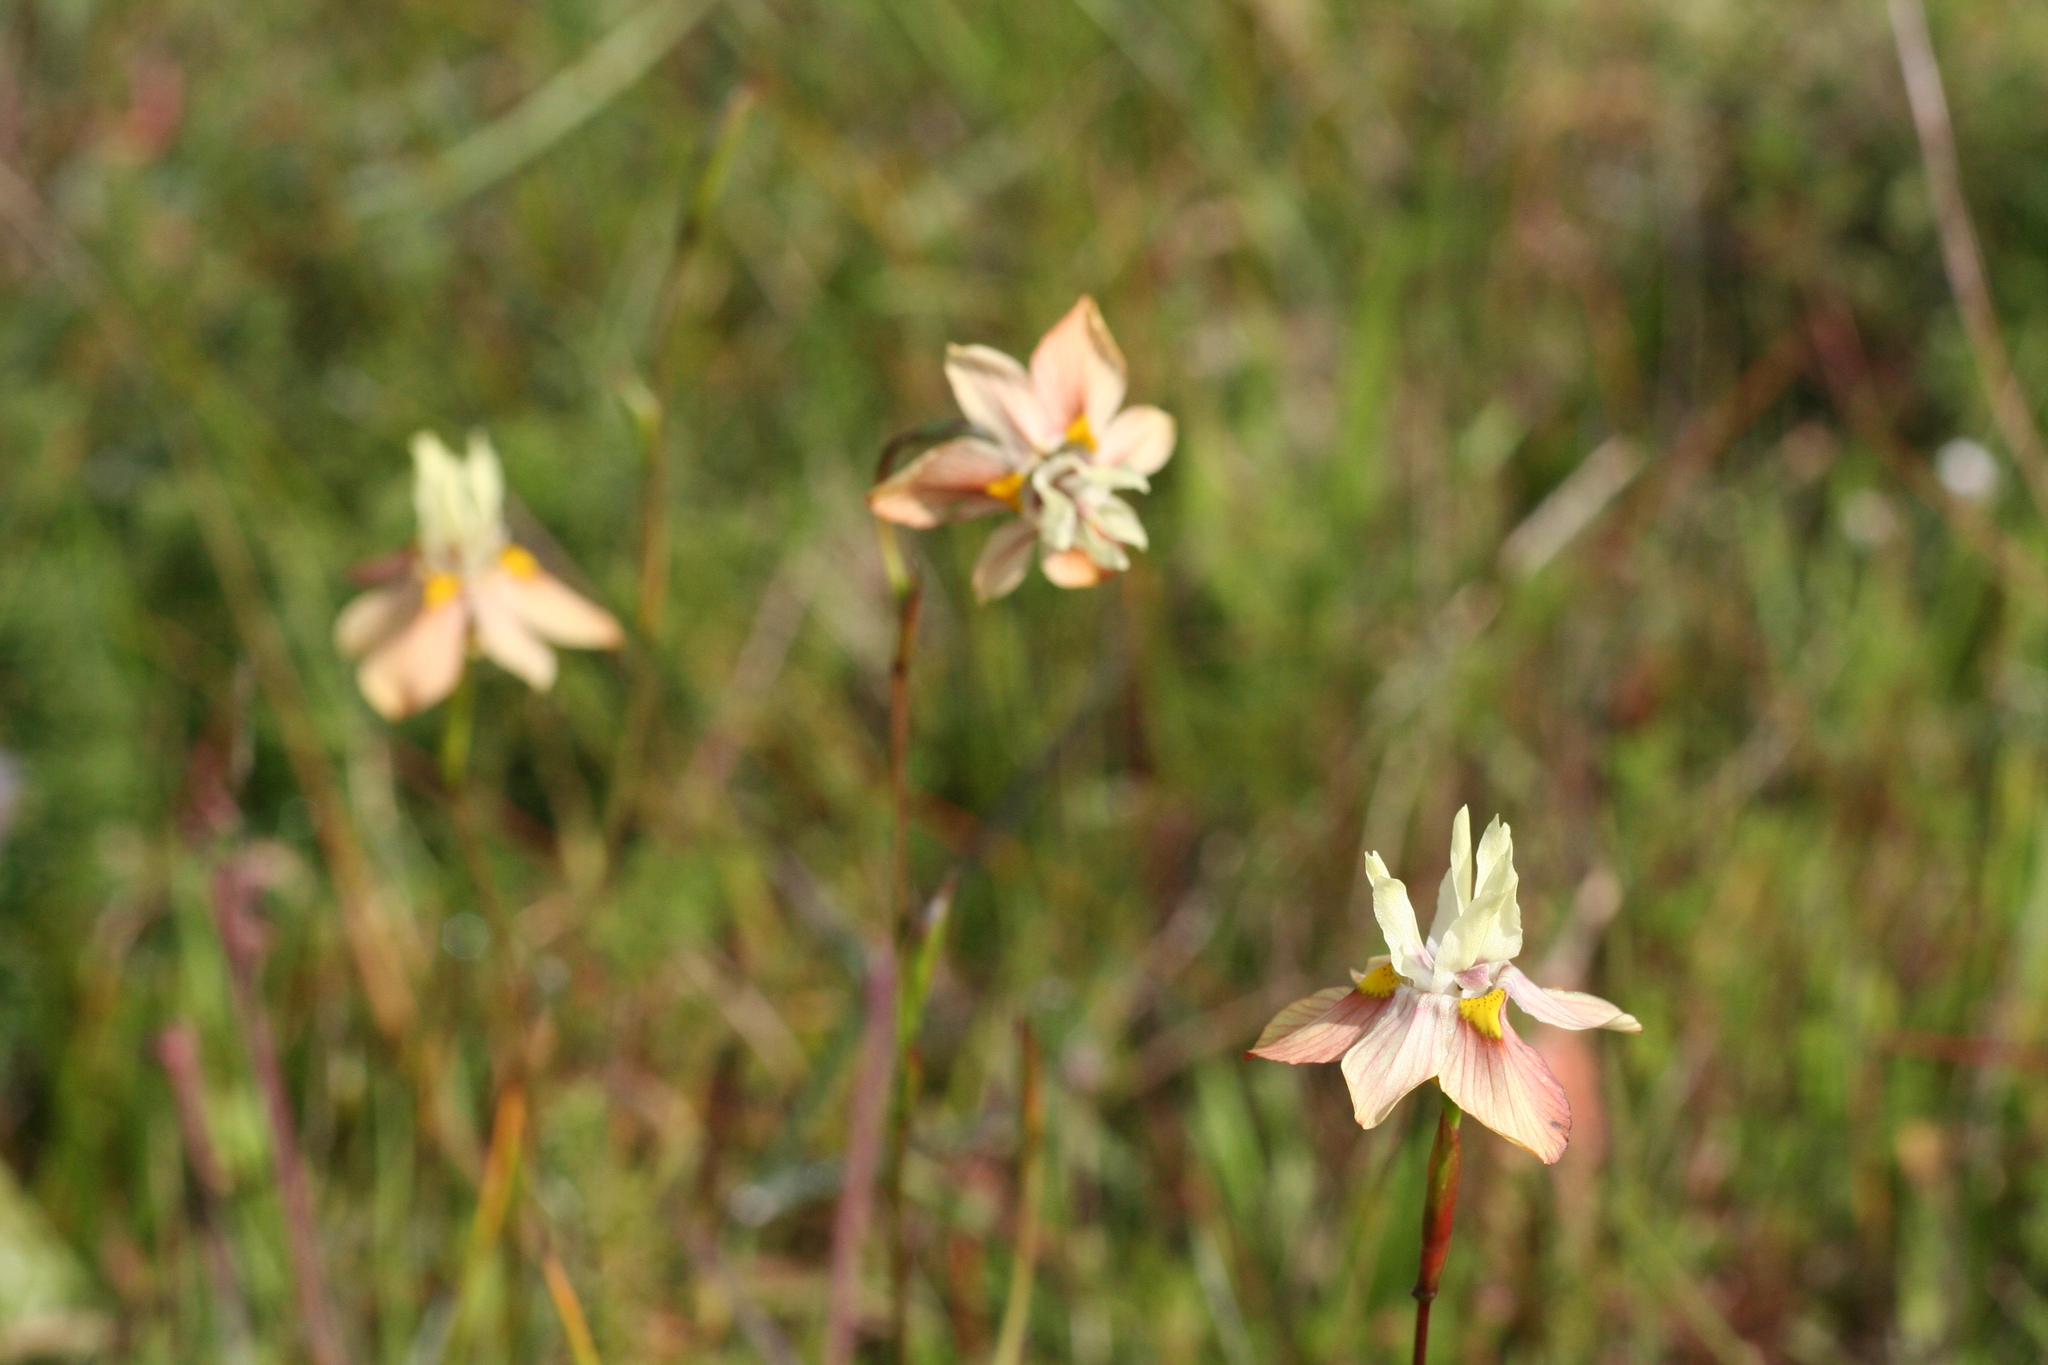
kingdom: Plantae
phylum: Tracheophyta
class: Liliopsida
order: Asparagales
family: Iridaceae
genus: Moraea
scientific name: Moraea gawleri
